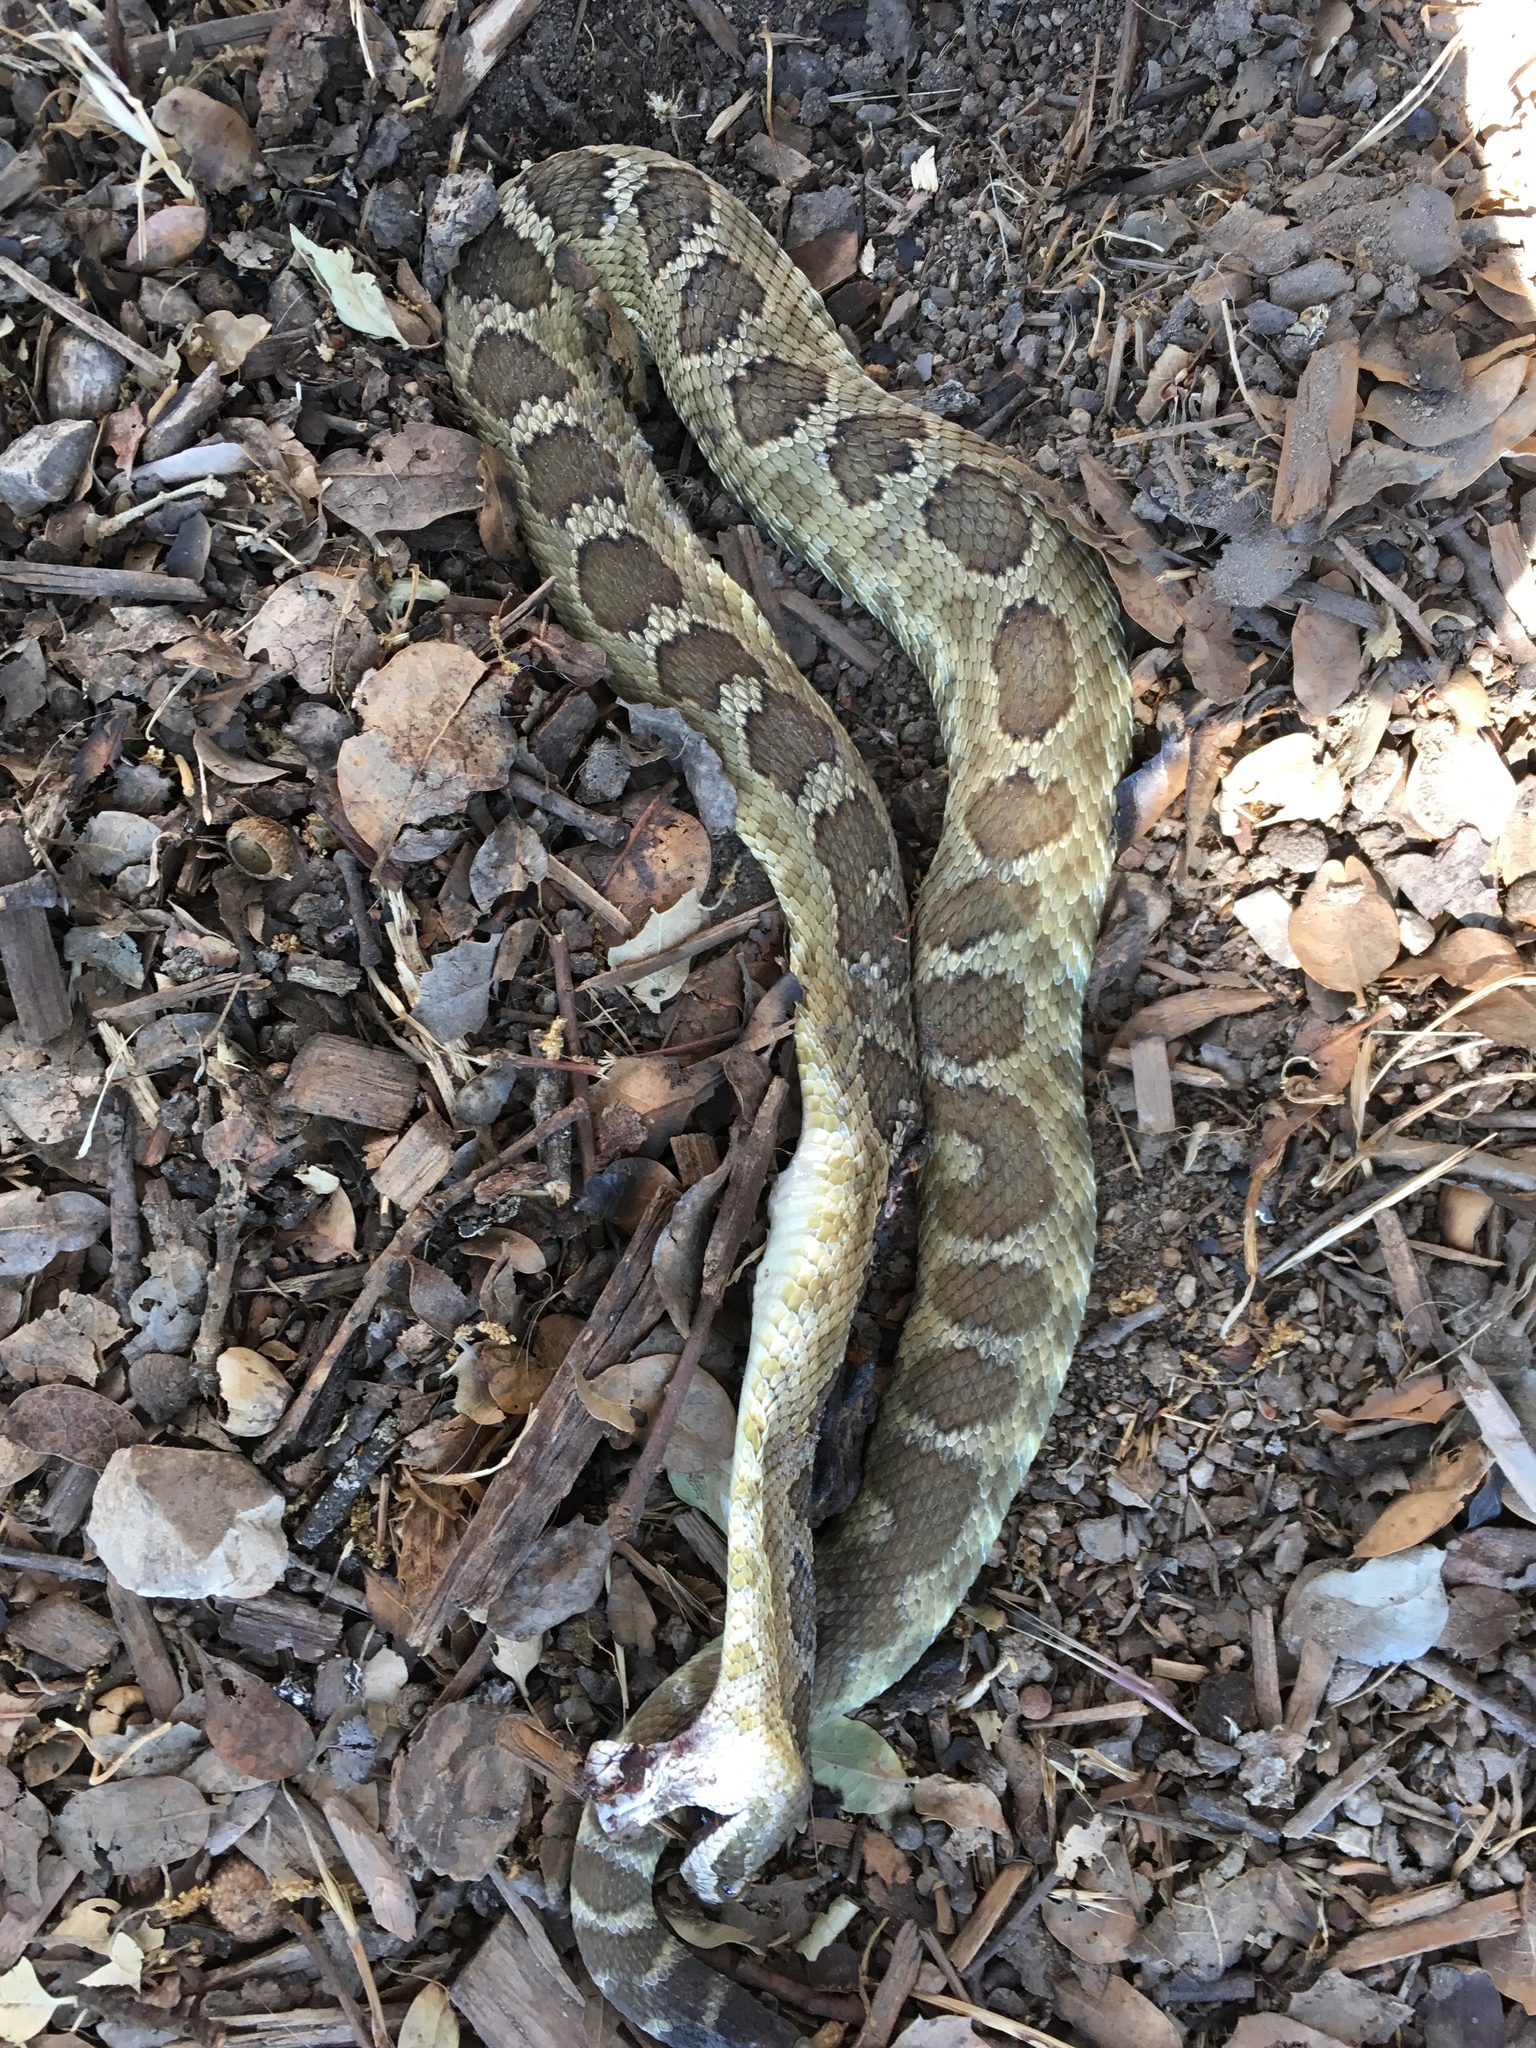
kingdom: Animalia
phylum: Chordata
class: Squamata
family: Viperidae
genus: Crotalus
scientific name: Crotalus oreganus
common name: Abyssus
